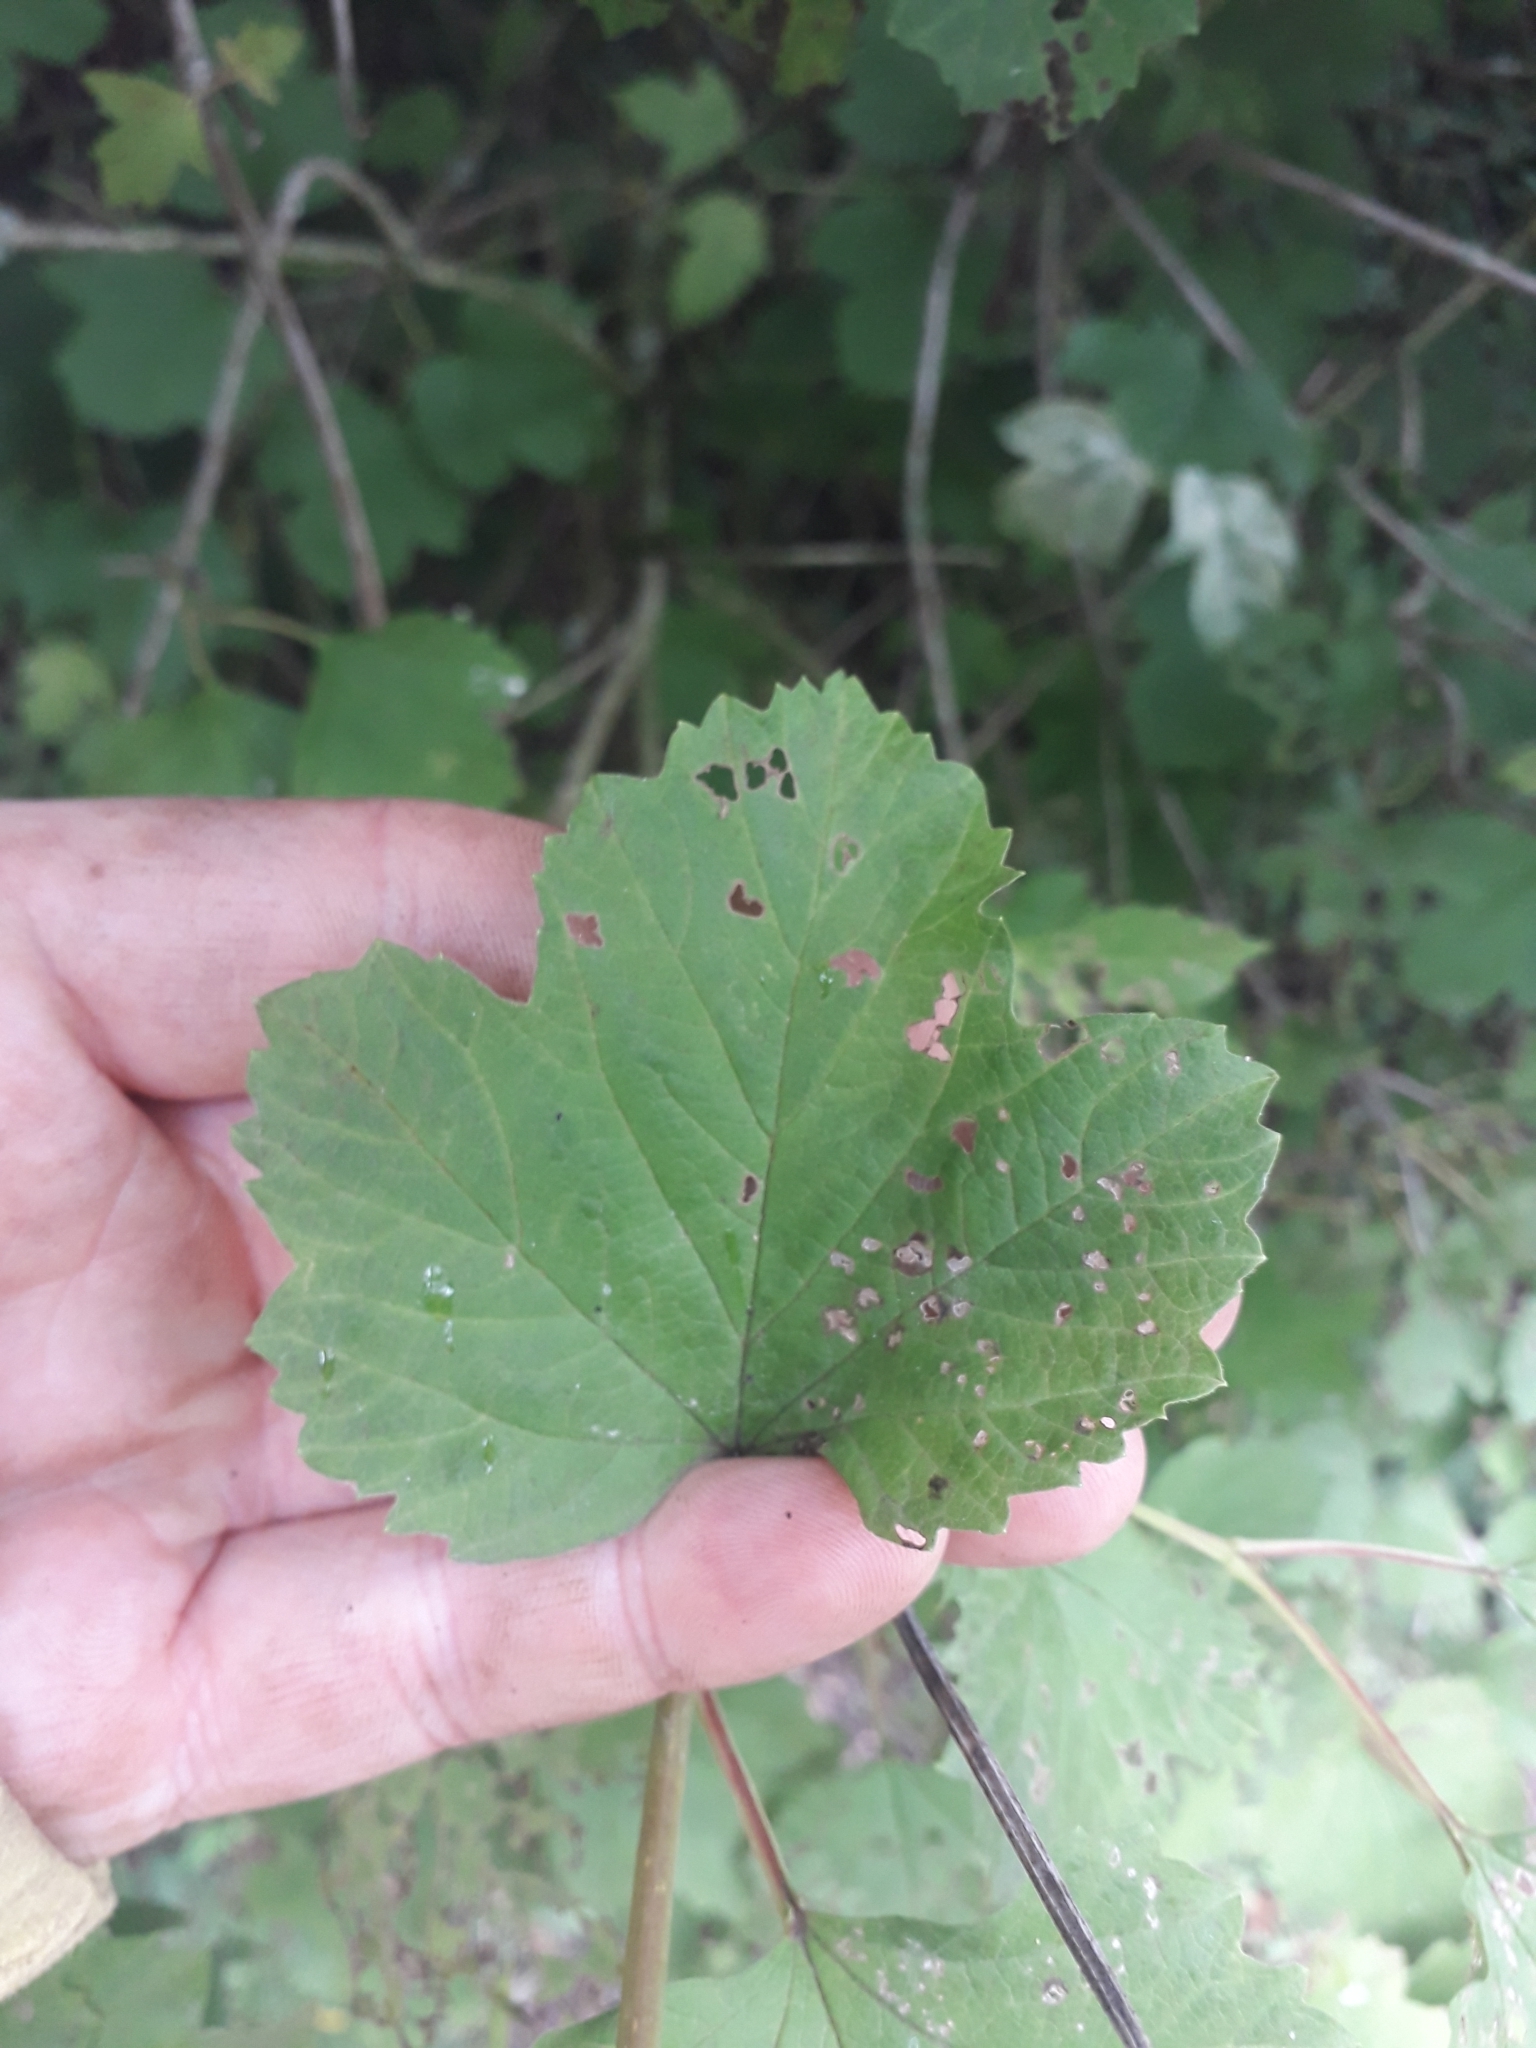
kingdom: Plantae
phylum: Tracheophyta
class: Magnoliopsida
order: Dipsacales
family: Viburnaceae
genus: Viburnum
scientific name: Viburnum opulus
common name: Guelder-rose
